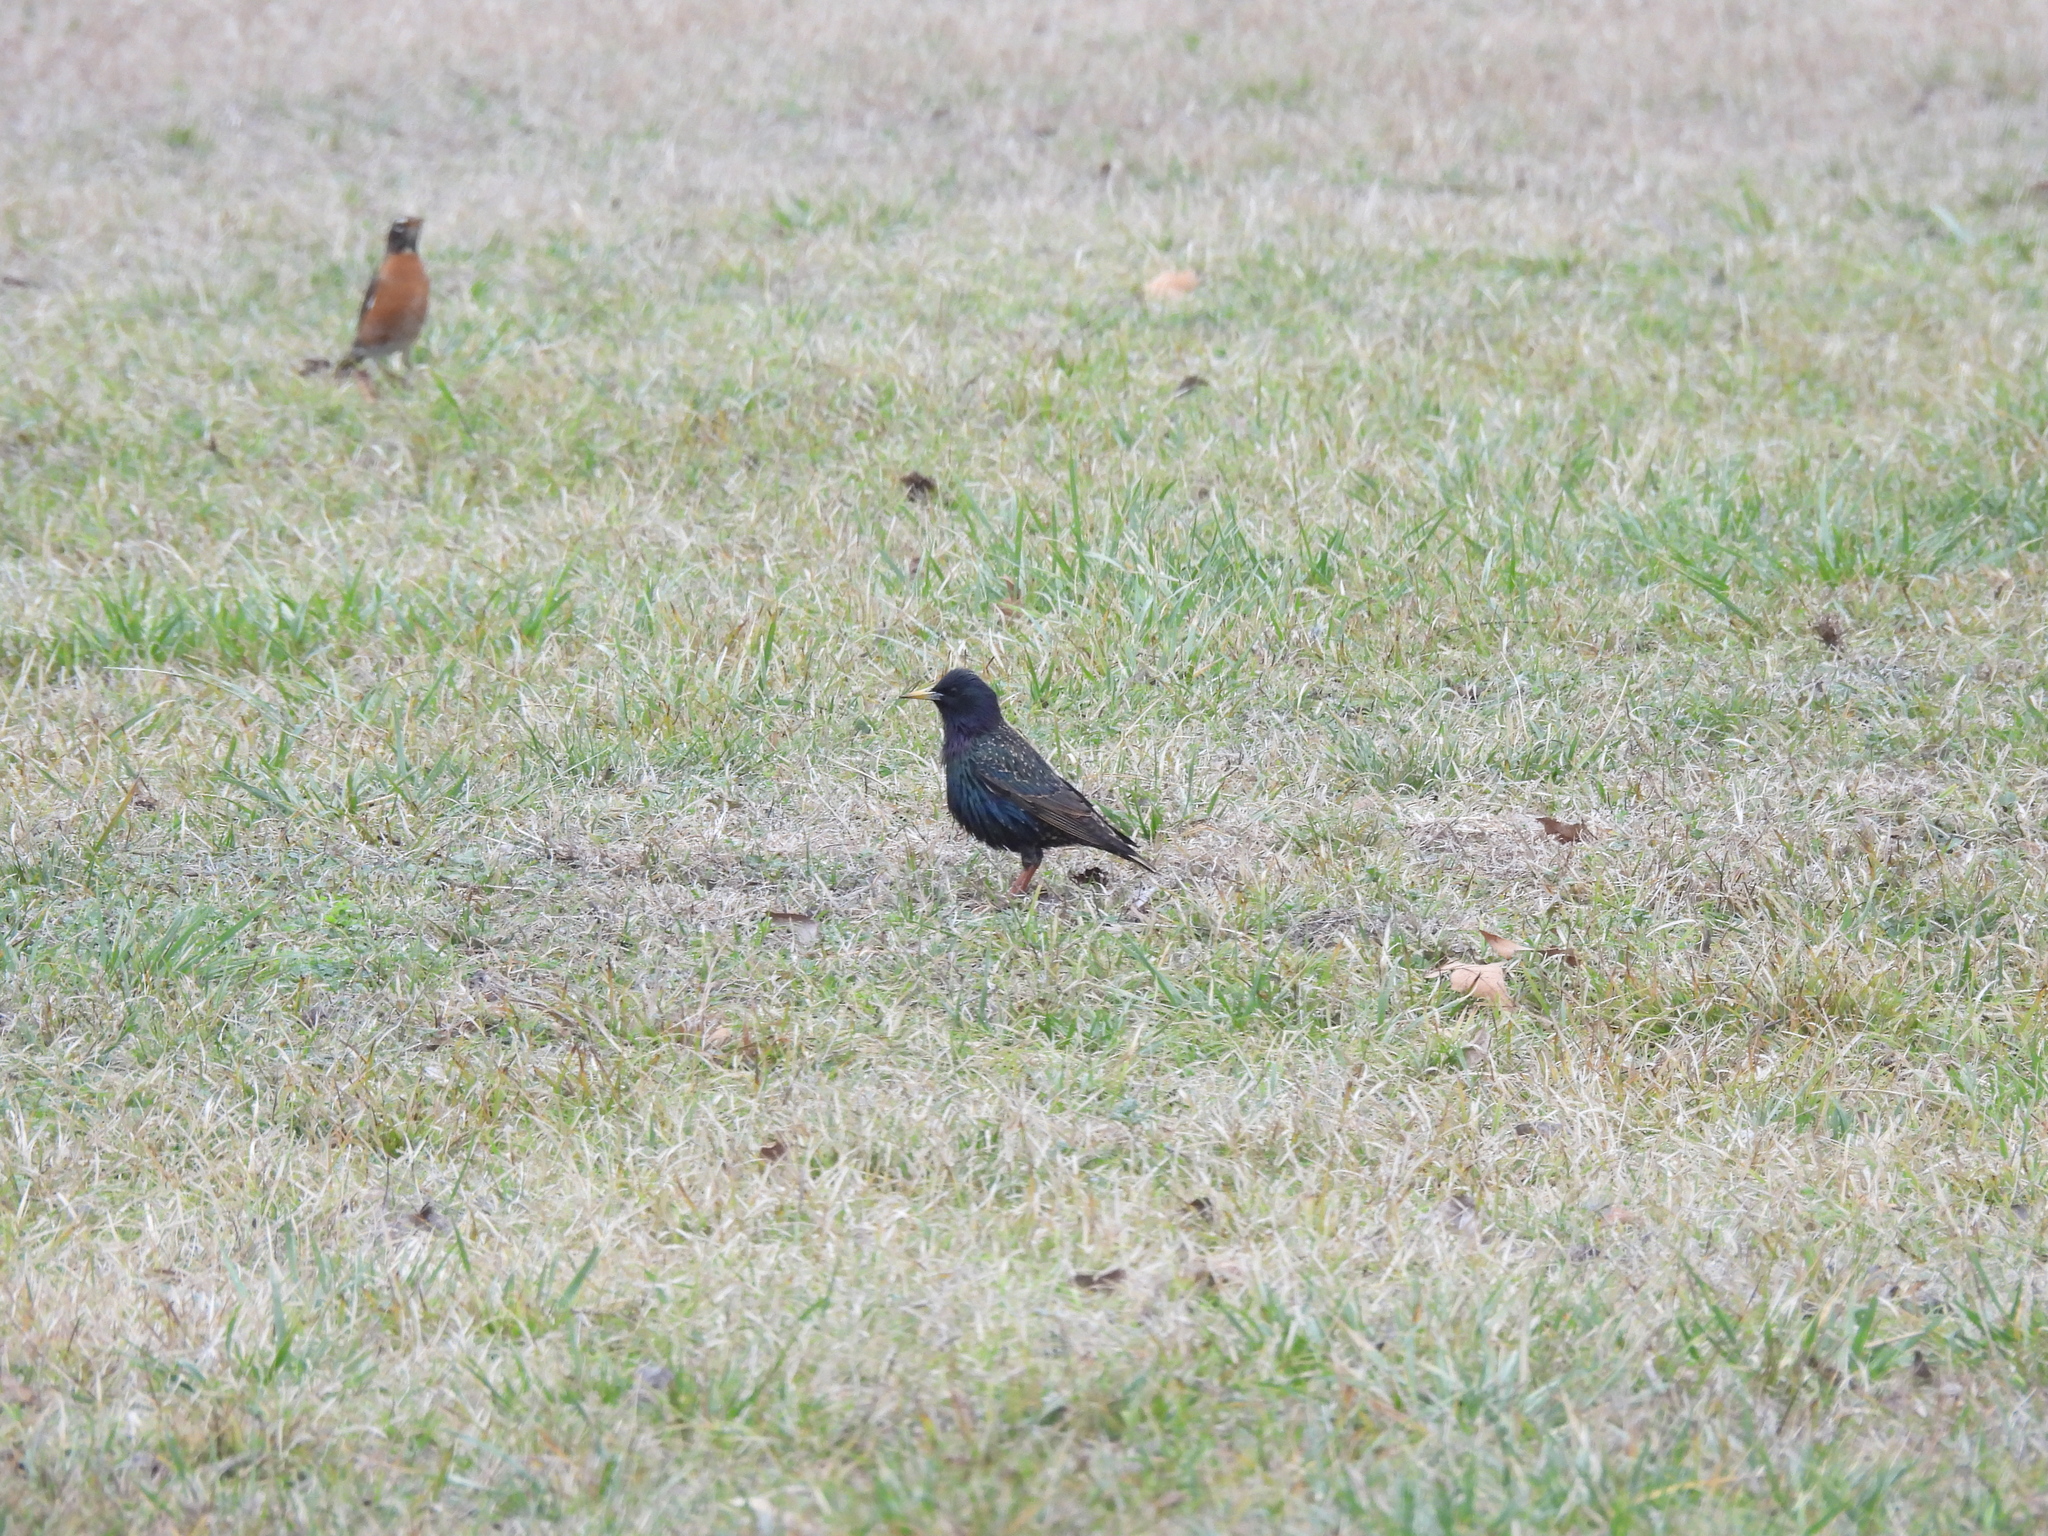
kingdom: Animalia
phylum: Chordata
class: Aves
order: Passeriformes
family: Sturnidae
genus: Sturnus
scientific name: Sturnus vulgaris
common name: Common starling
